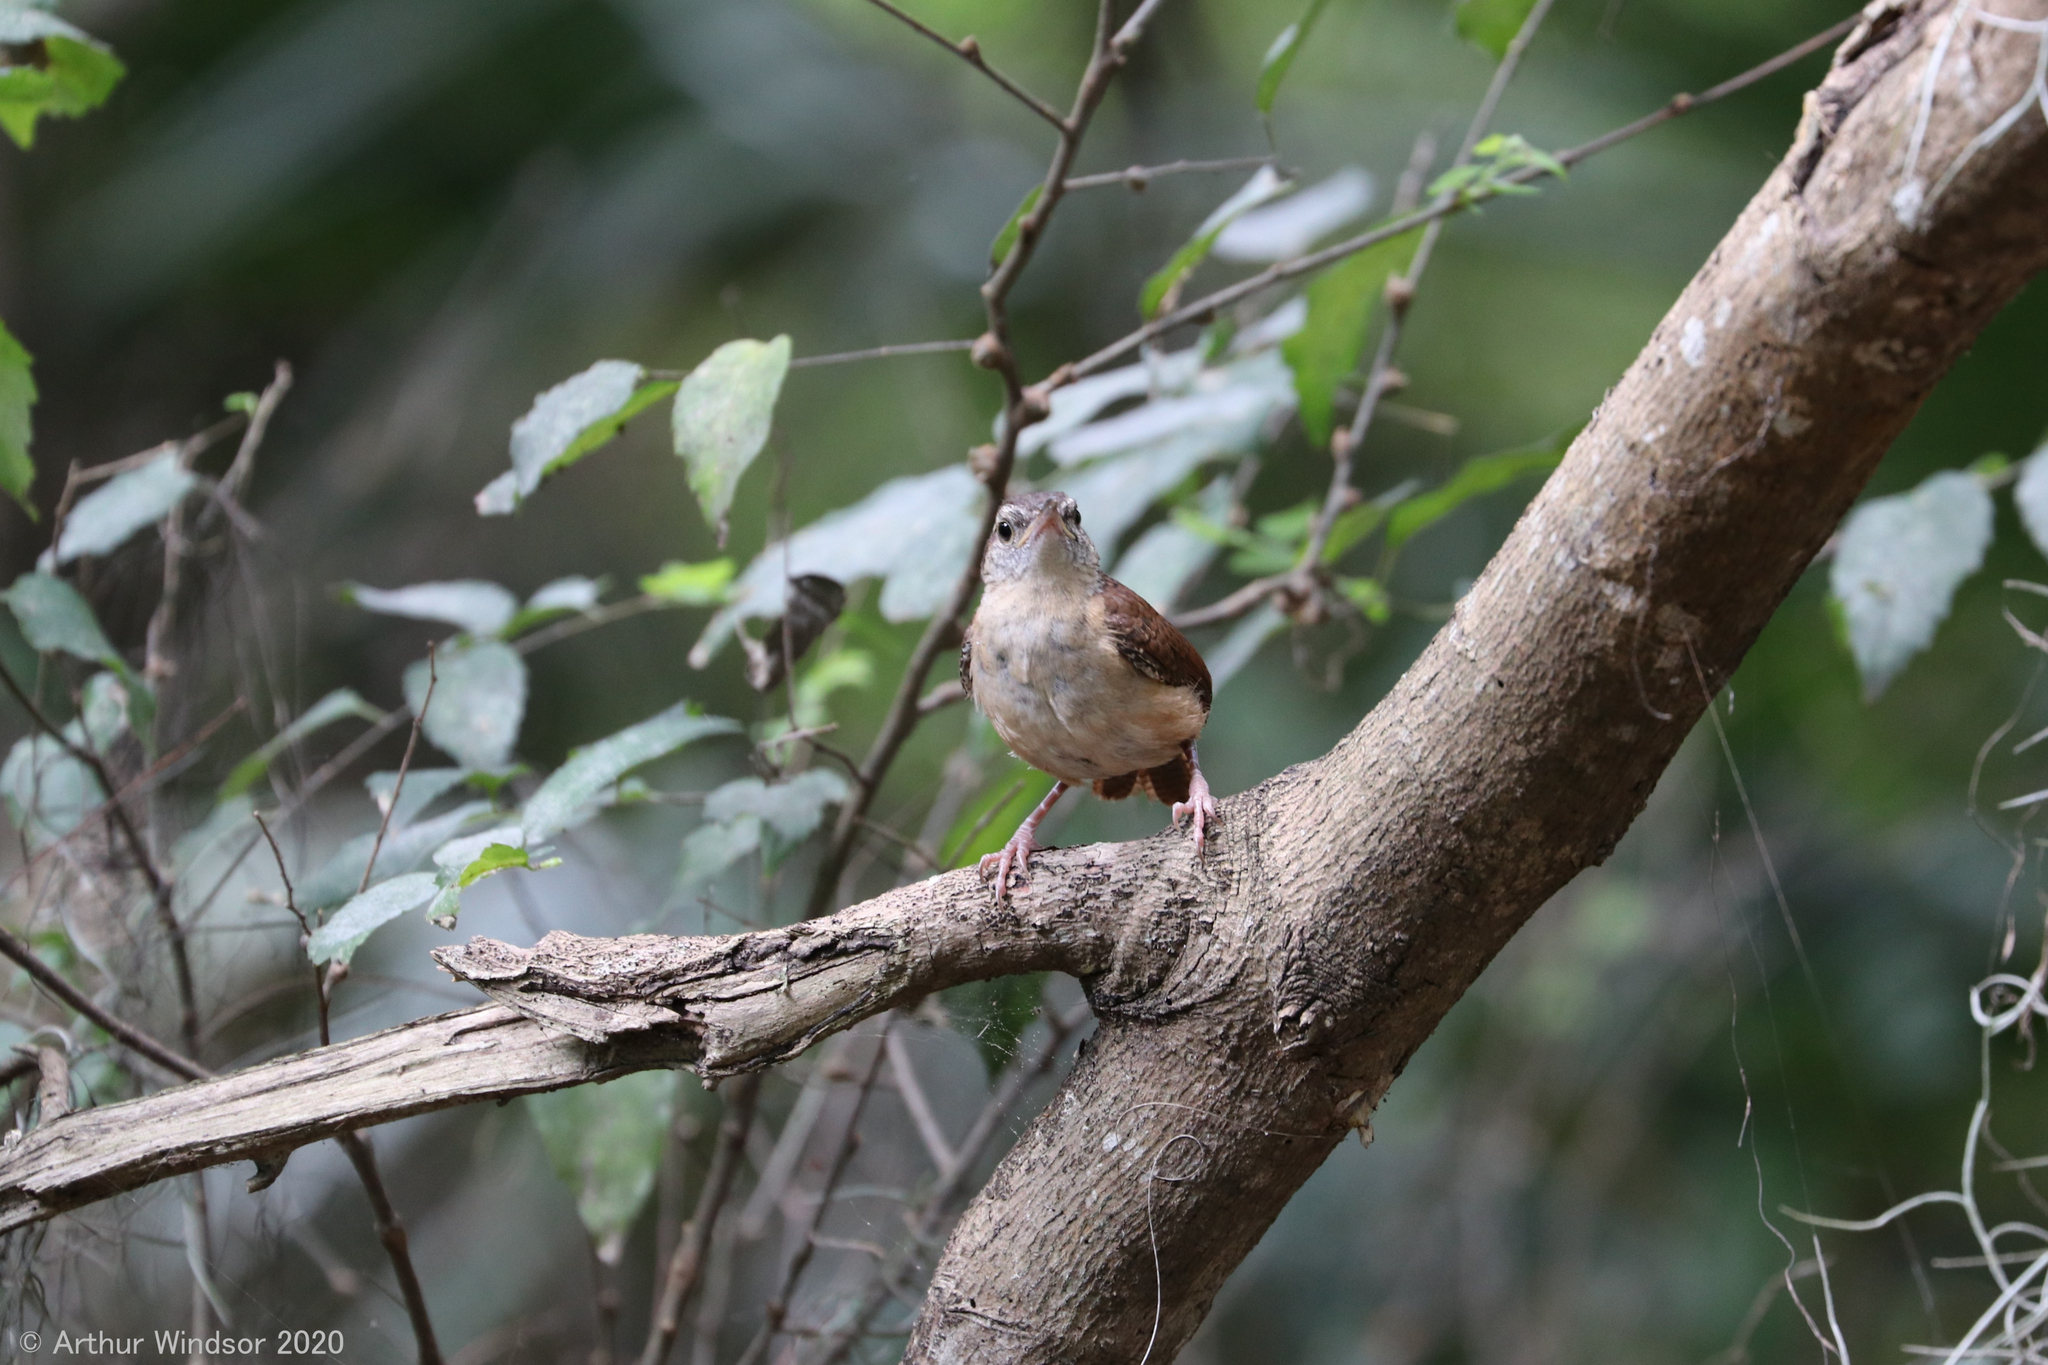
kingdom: Animalia
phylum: Chordata
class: Aves
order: Passeriformes
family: Troglodytidae
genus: Thryothorus
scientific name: Thryothorus ludovicianus
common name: Carolina wren
